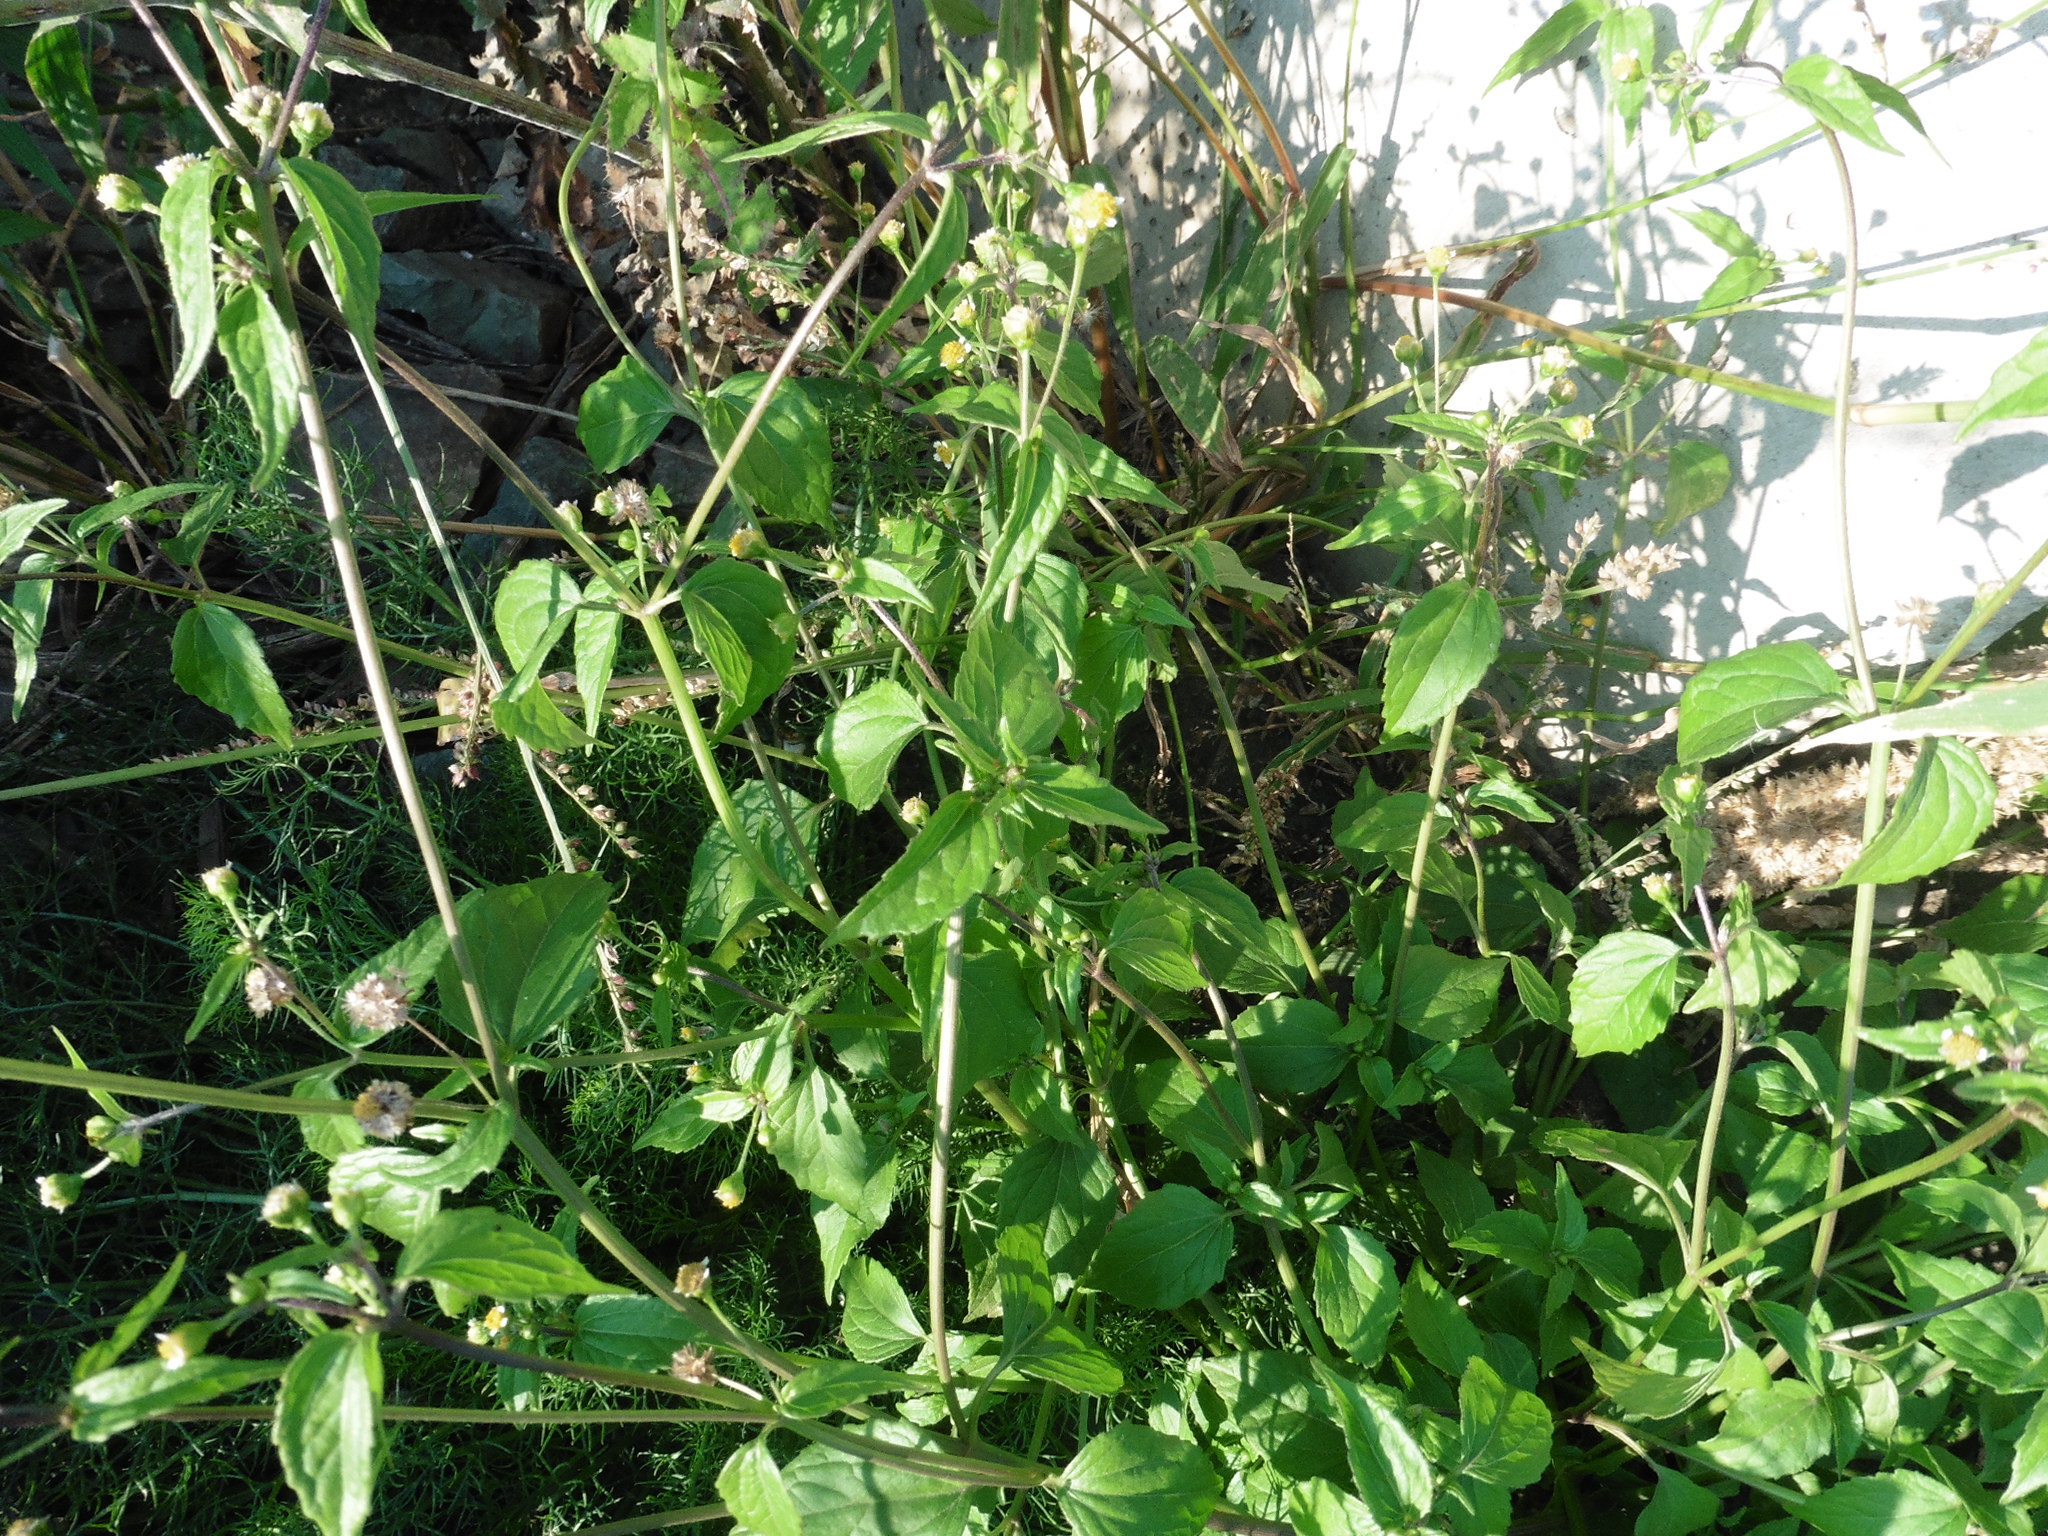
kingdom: Plantae
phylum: Tracheophyta
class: Magnoliopsida
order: Asterales
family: Asteraceae
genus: Galinsoga
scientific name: Galinsoga parviflora
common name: Gallant soldier
